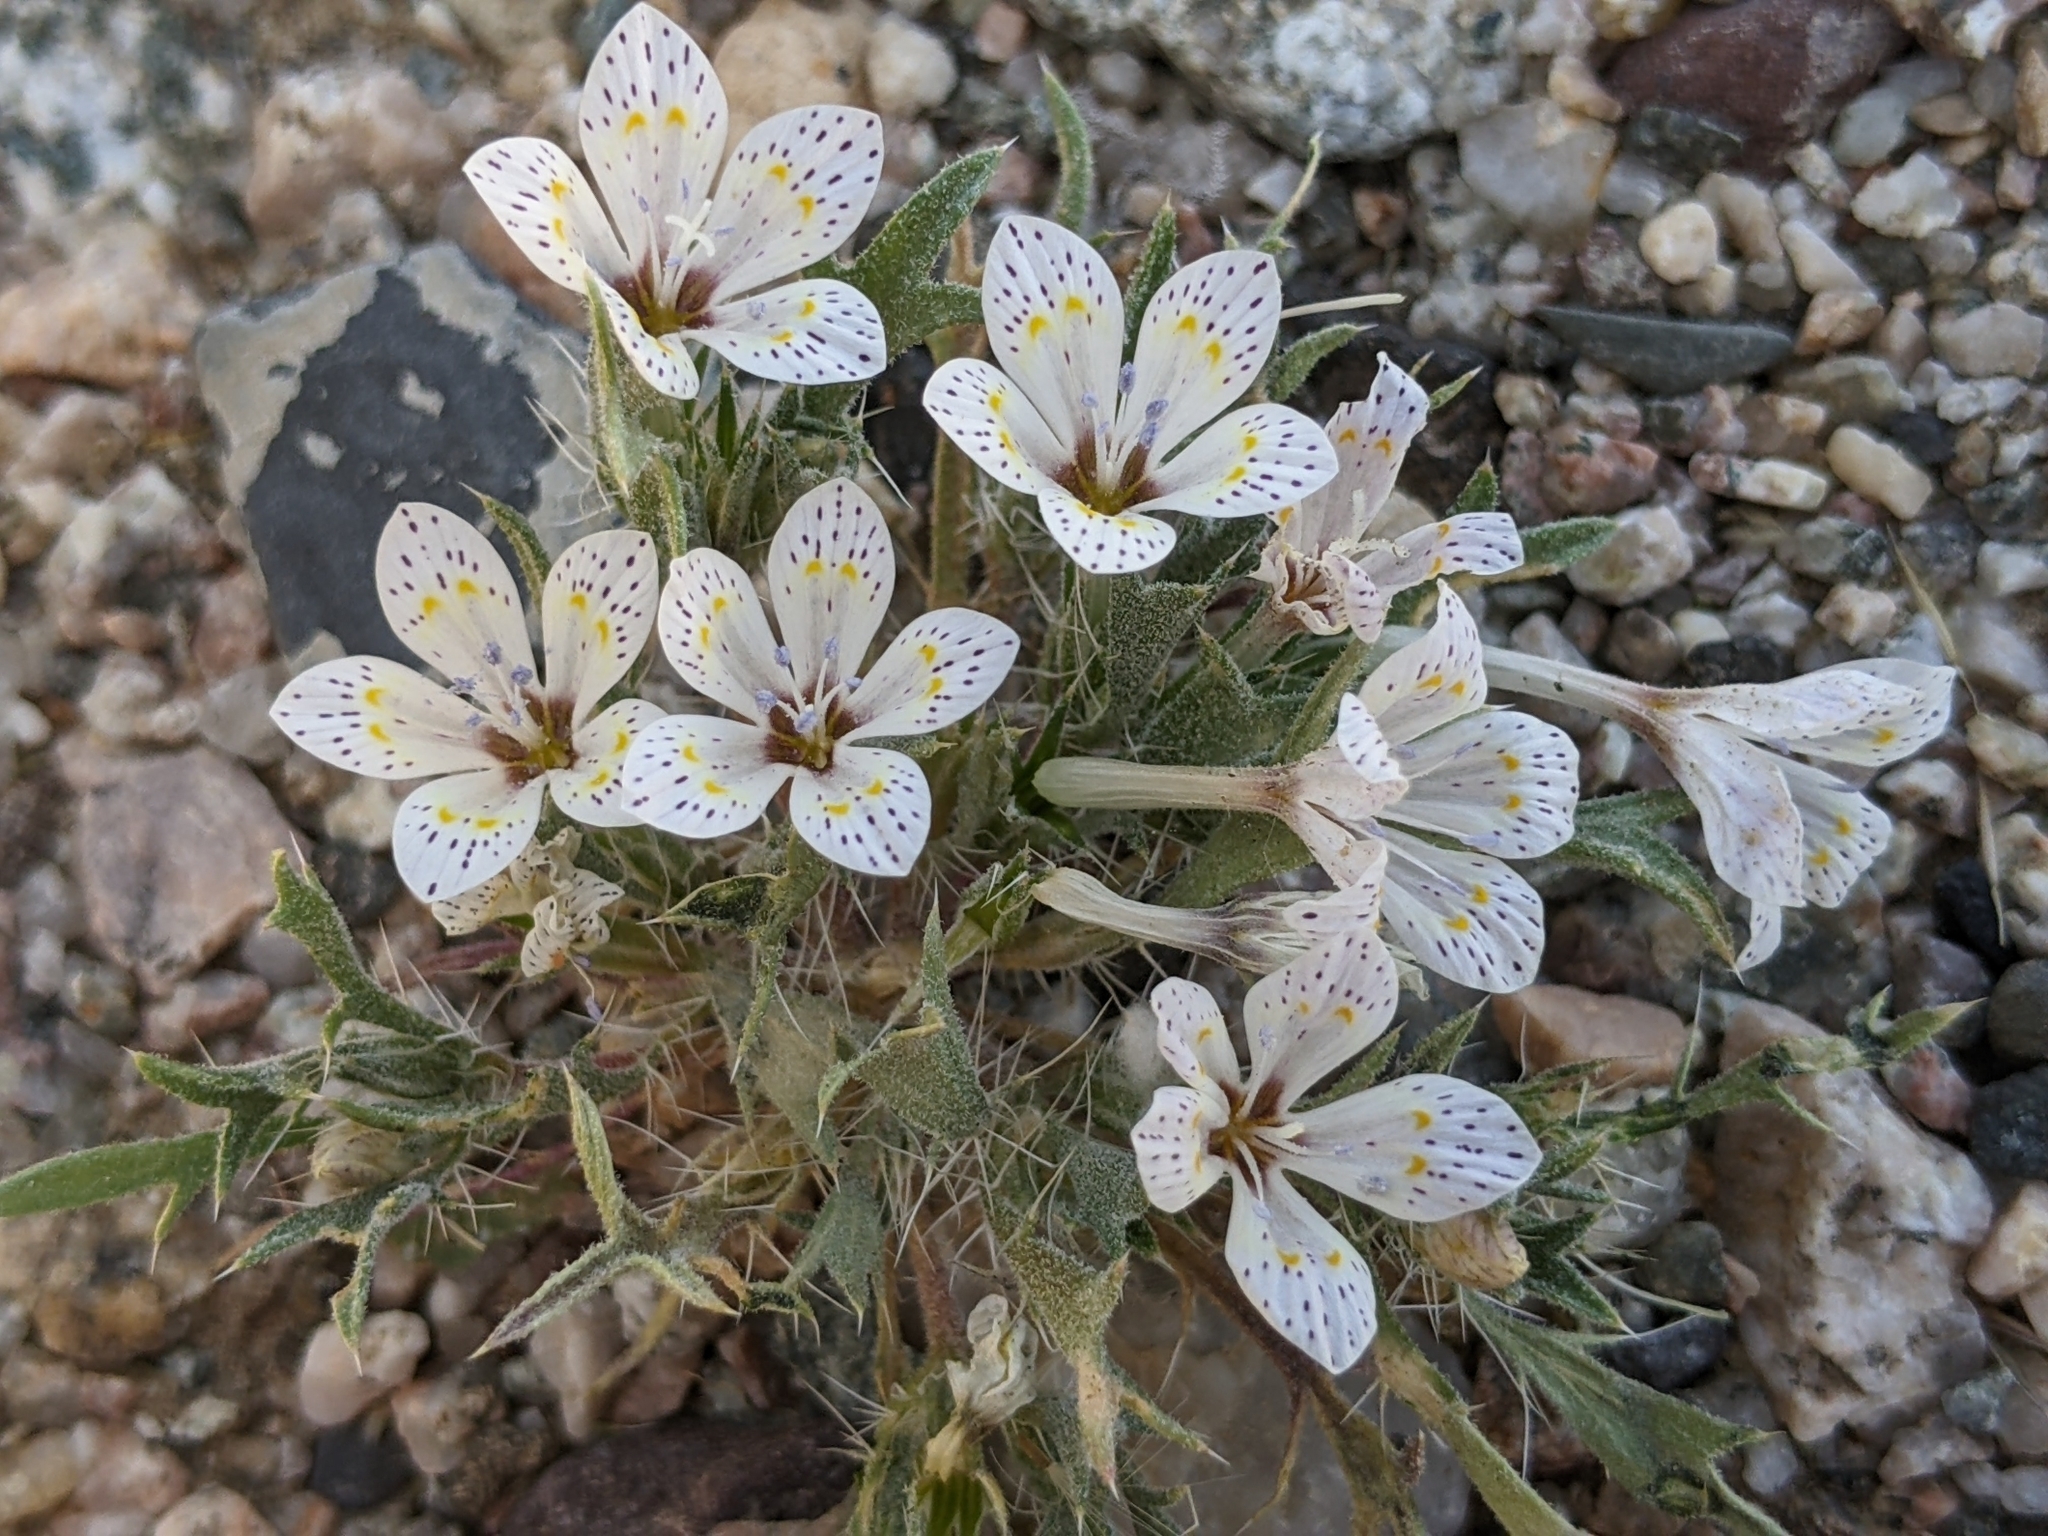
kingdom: Plantae
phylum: Tracheophyta
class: Magnoliopsida
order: Ericales
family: Polemoniaceae
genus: Langloisia
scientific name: Langloisia setosissima
